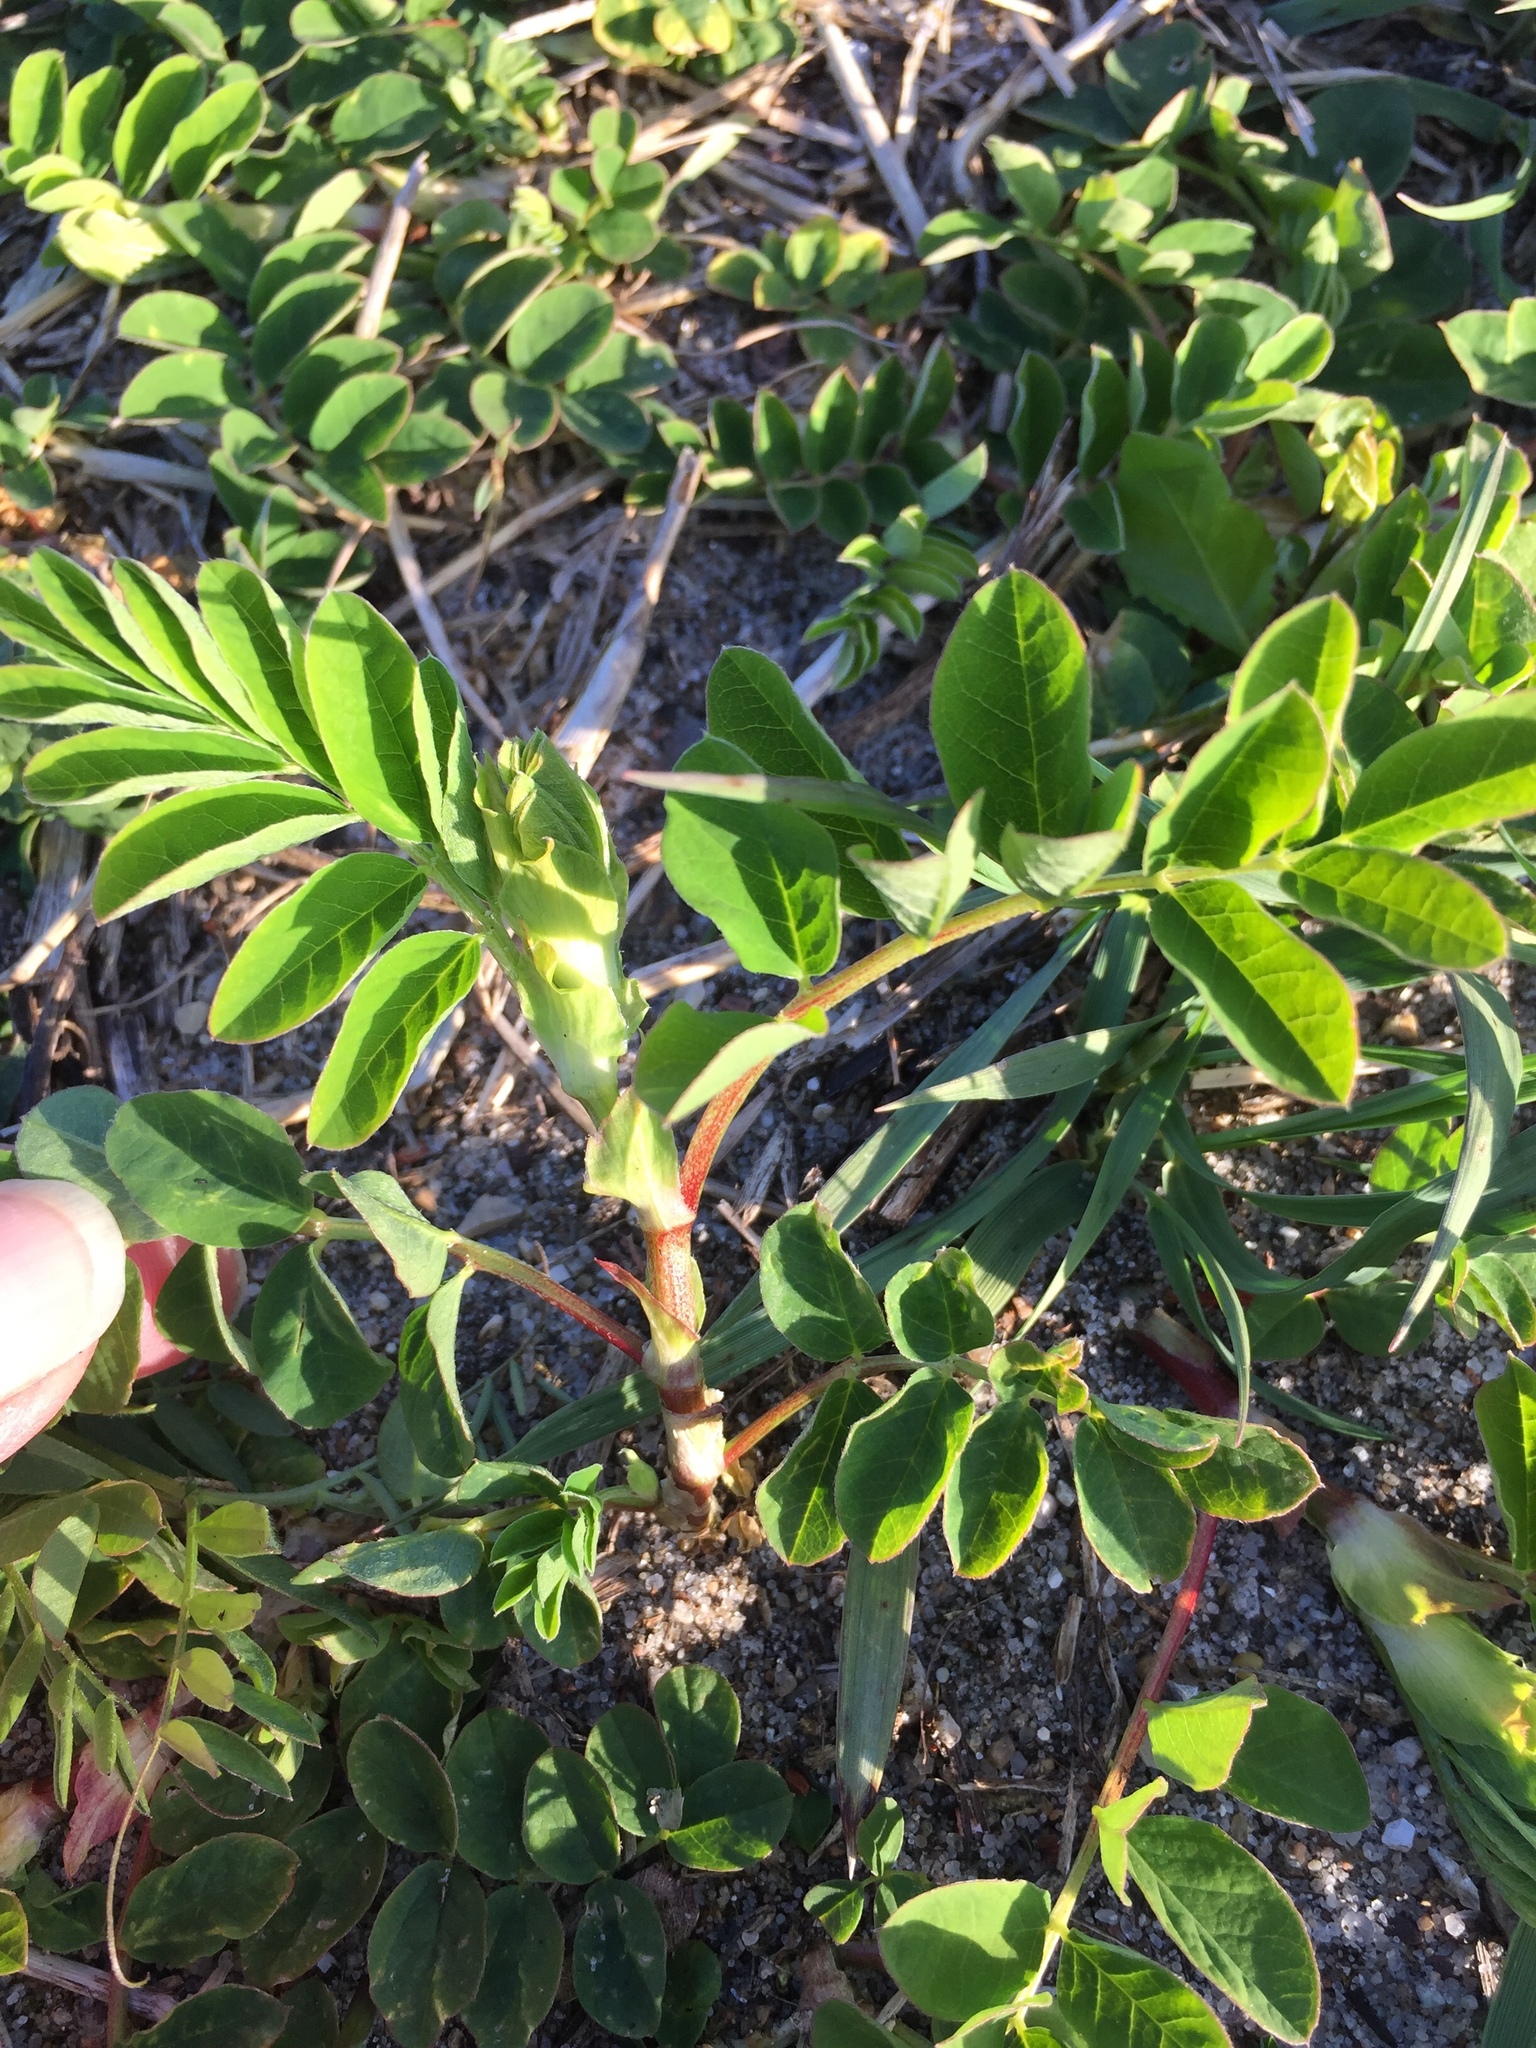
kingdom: Plantae
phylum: Tracheophyta
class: Magnoliopsida
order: Fabales
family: Fabaceae
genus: Astragalus
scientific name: Astragalus glycyphyllos
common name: Wild liquorice
